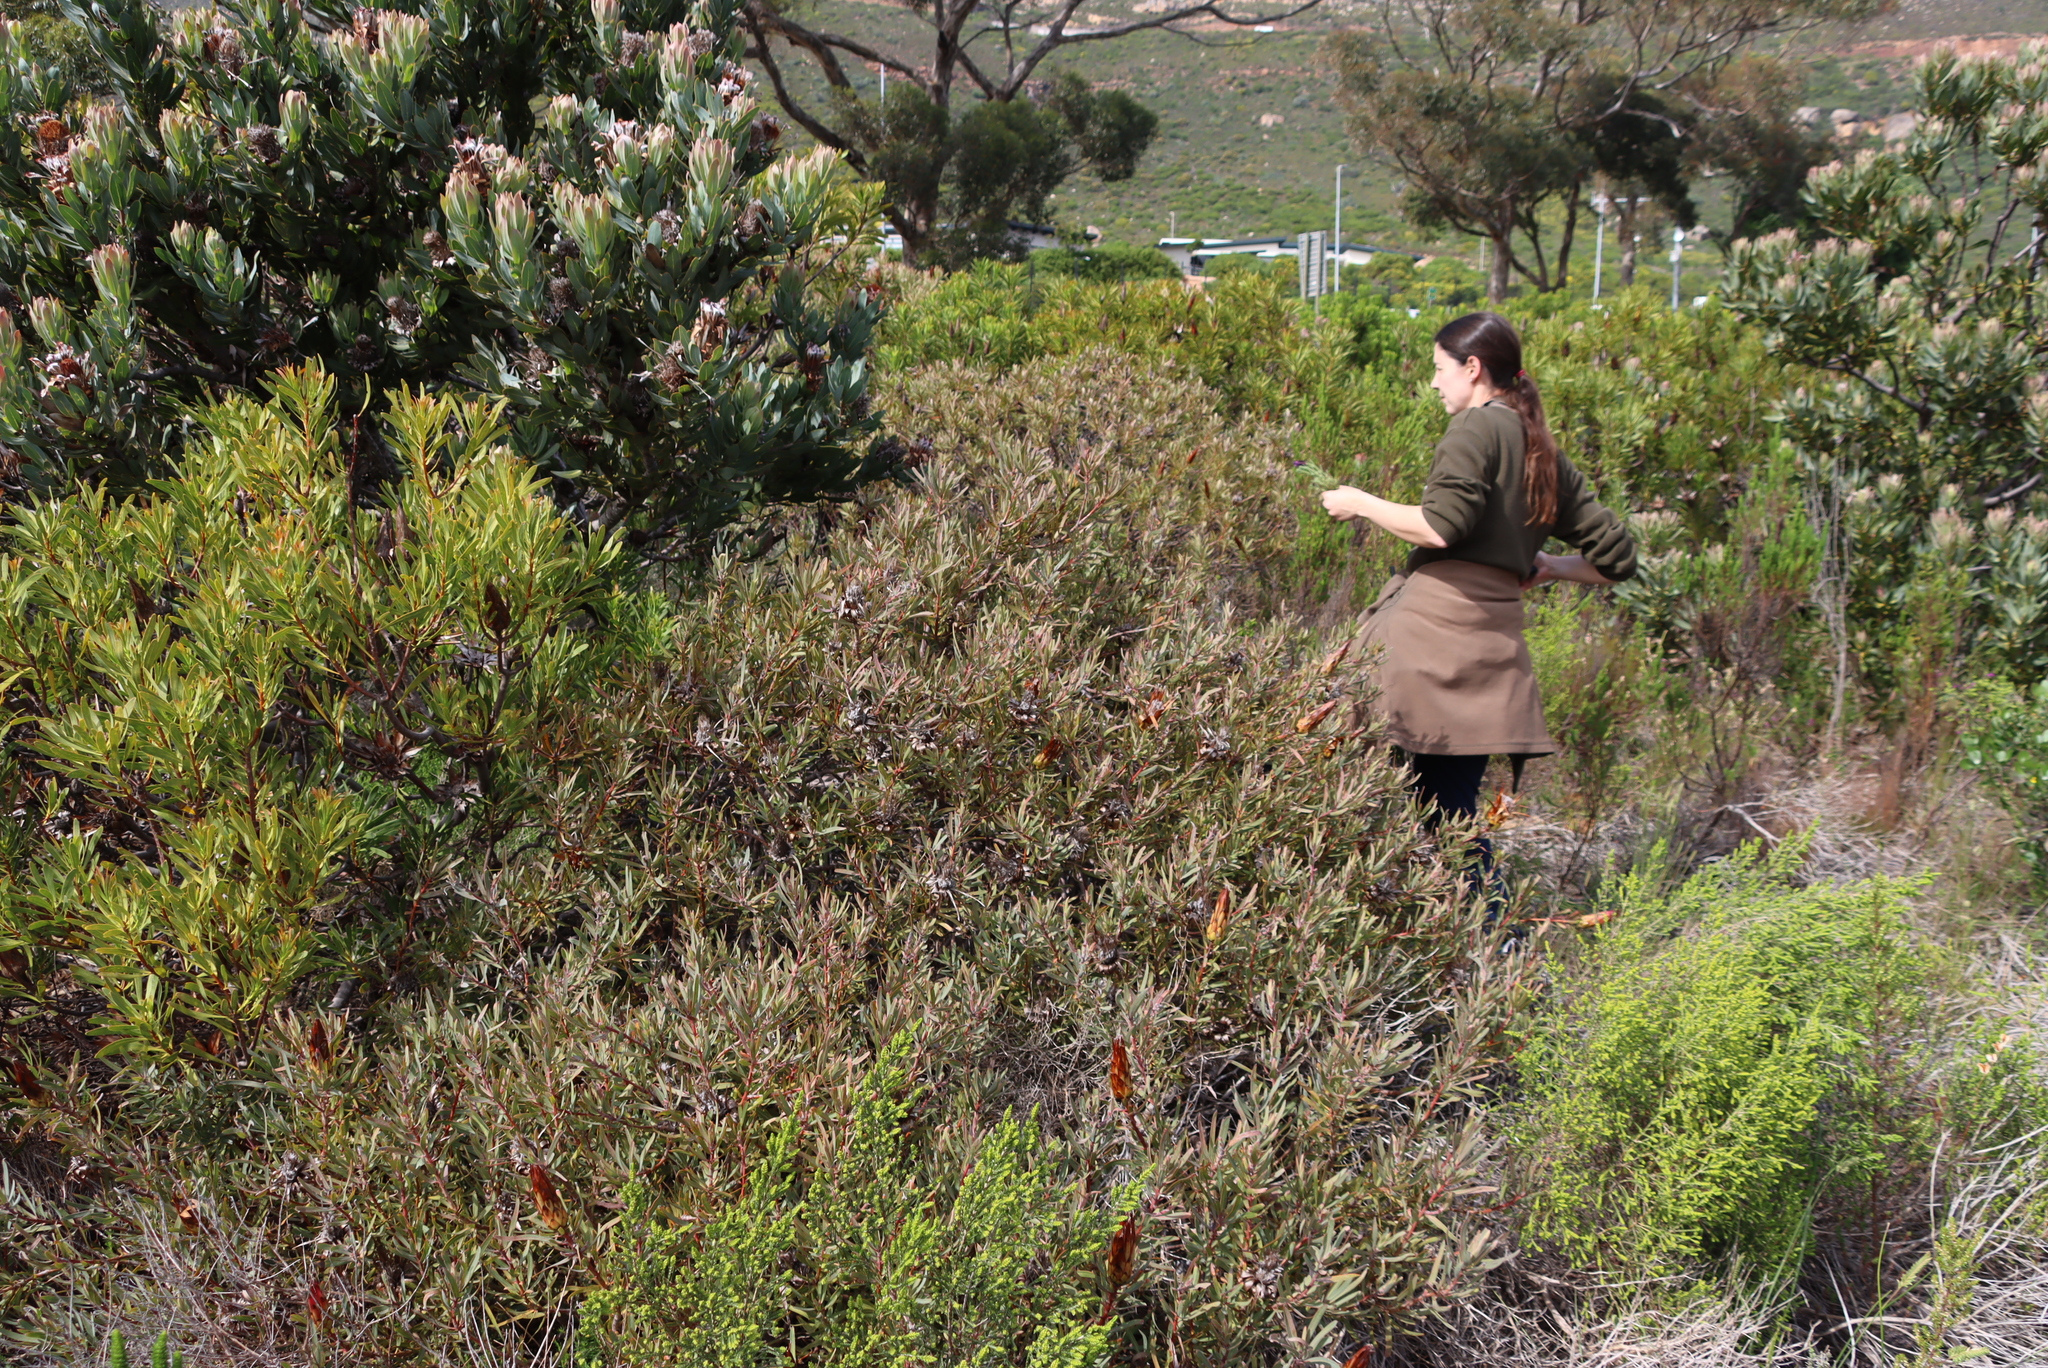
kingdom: Plantae
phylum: Tracheophyta
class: Magnoliopsida
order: Proteales
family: Proteaceae
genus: Protea
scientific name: Protea burchellii
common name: Burchell's sugarbush
